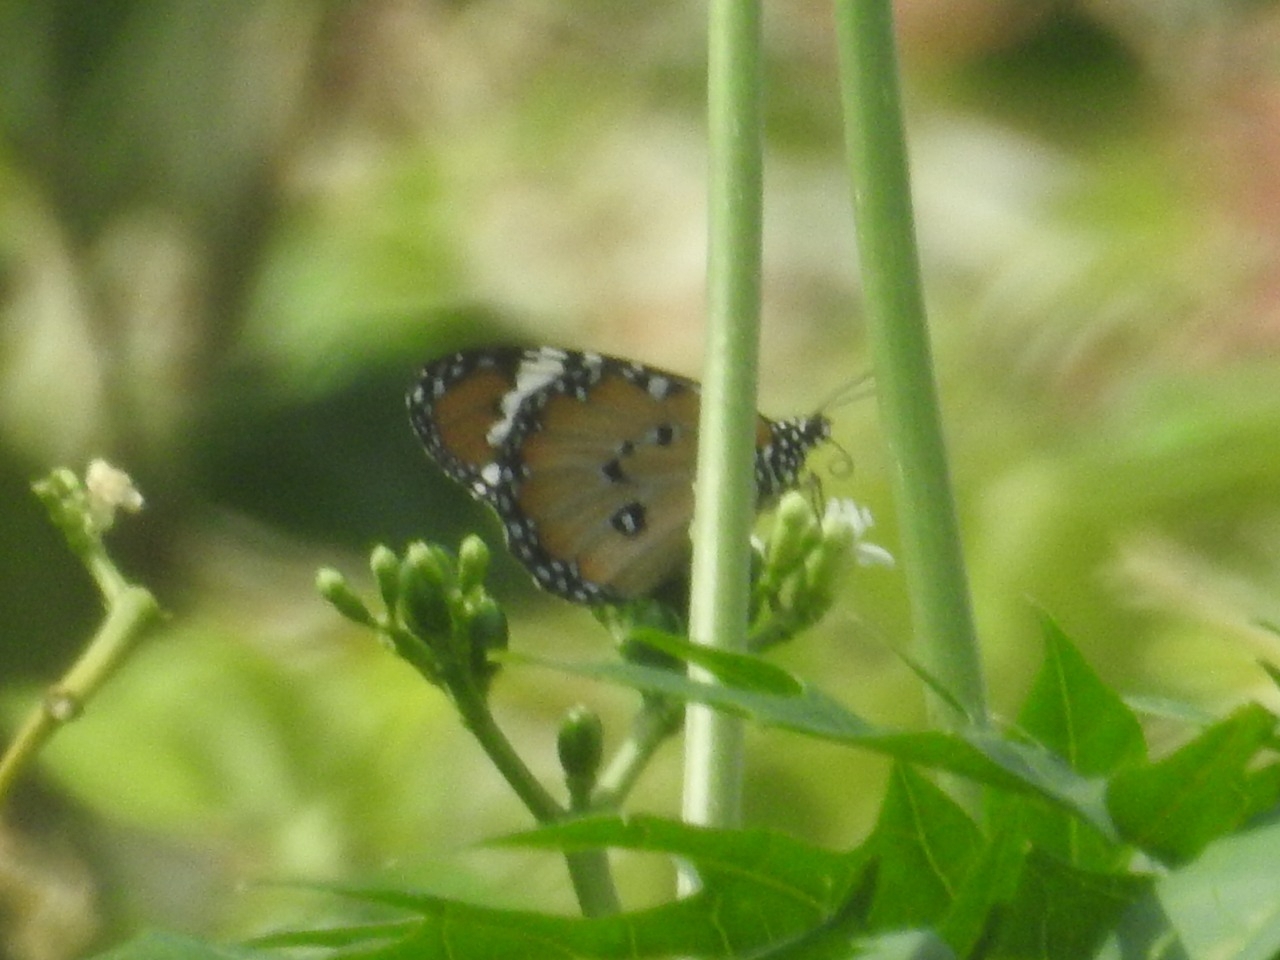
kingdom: Animalia
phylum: Arthropoda
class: Insecta
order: Lepidoptera
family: Nymphalidae
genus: Danaus
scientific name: Danaus chrysippus
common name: Plain tiger
